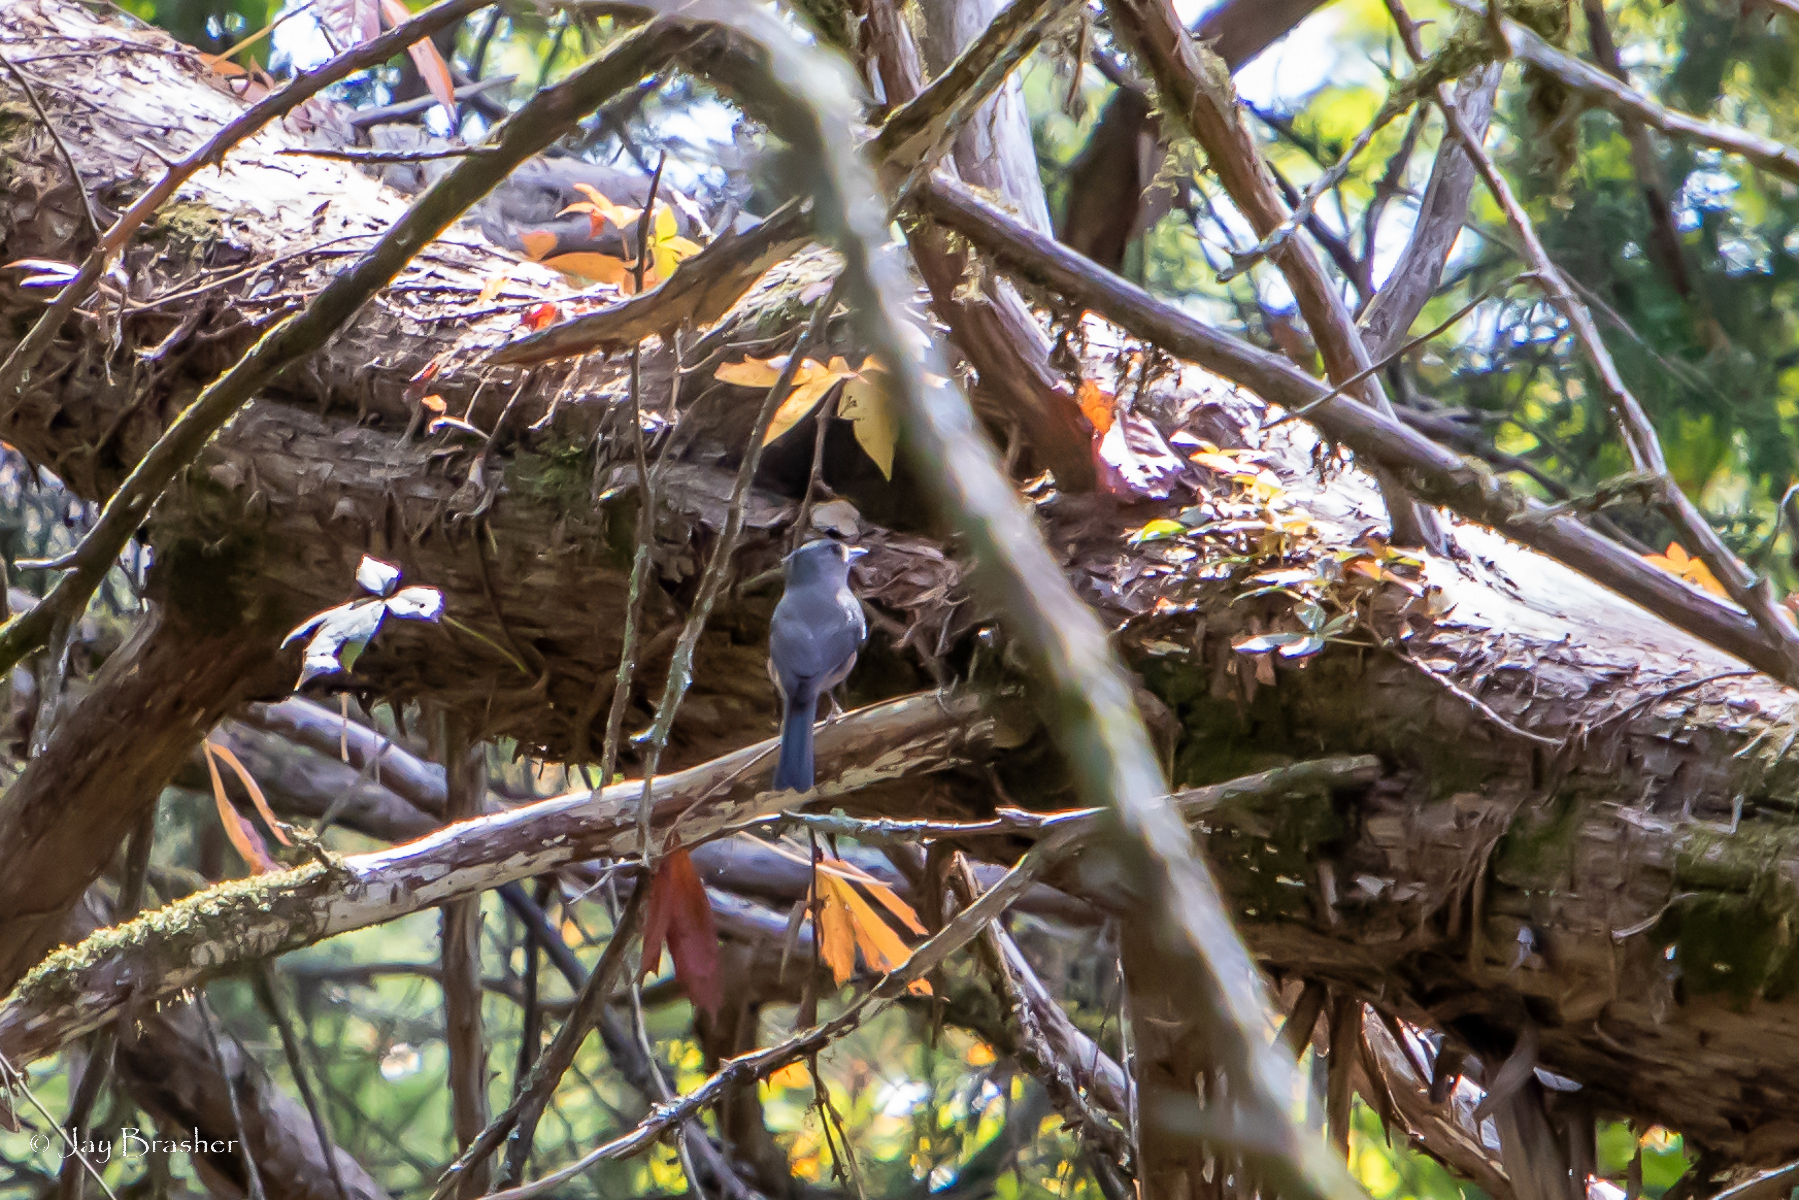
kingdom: Animalia
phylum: Chordata
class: Aves
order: Passeriformes
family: Paridae
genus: Baeolophus
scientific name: Baeolophus bicolor
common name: Tufted titmouse
